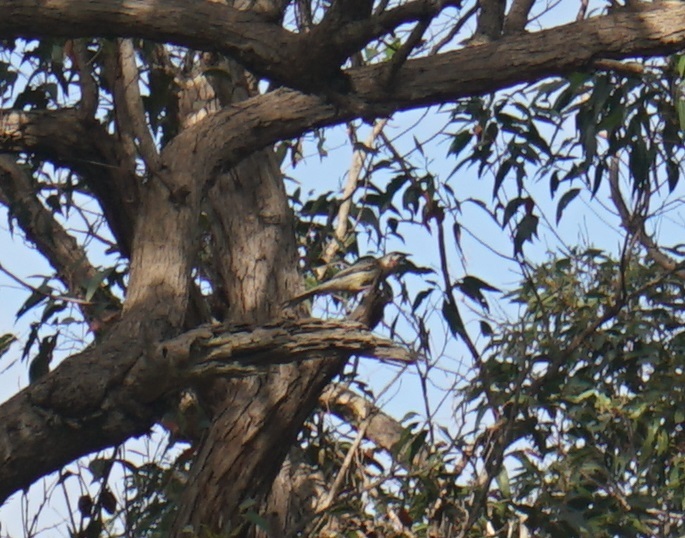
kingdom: Animalia
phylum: Chordata
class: Aves
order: Passeriformes
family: Meliphagidae
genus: Anthochaera
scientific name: Anthochaera carunculata
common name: Red wattlebird
